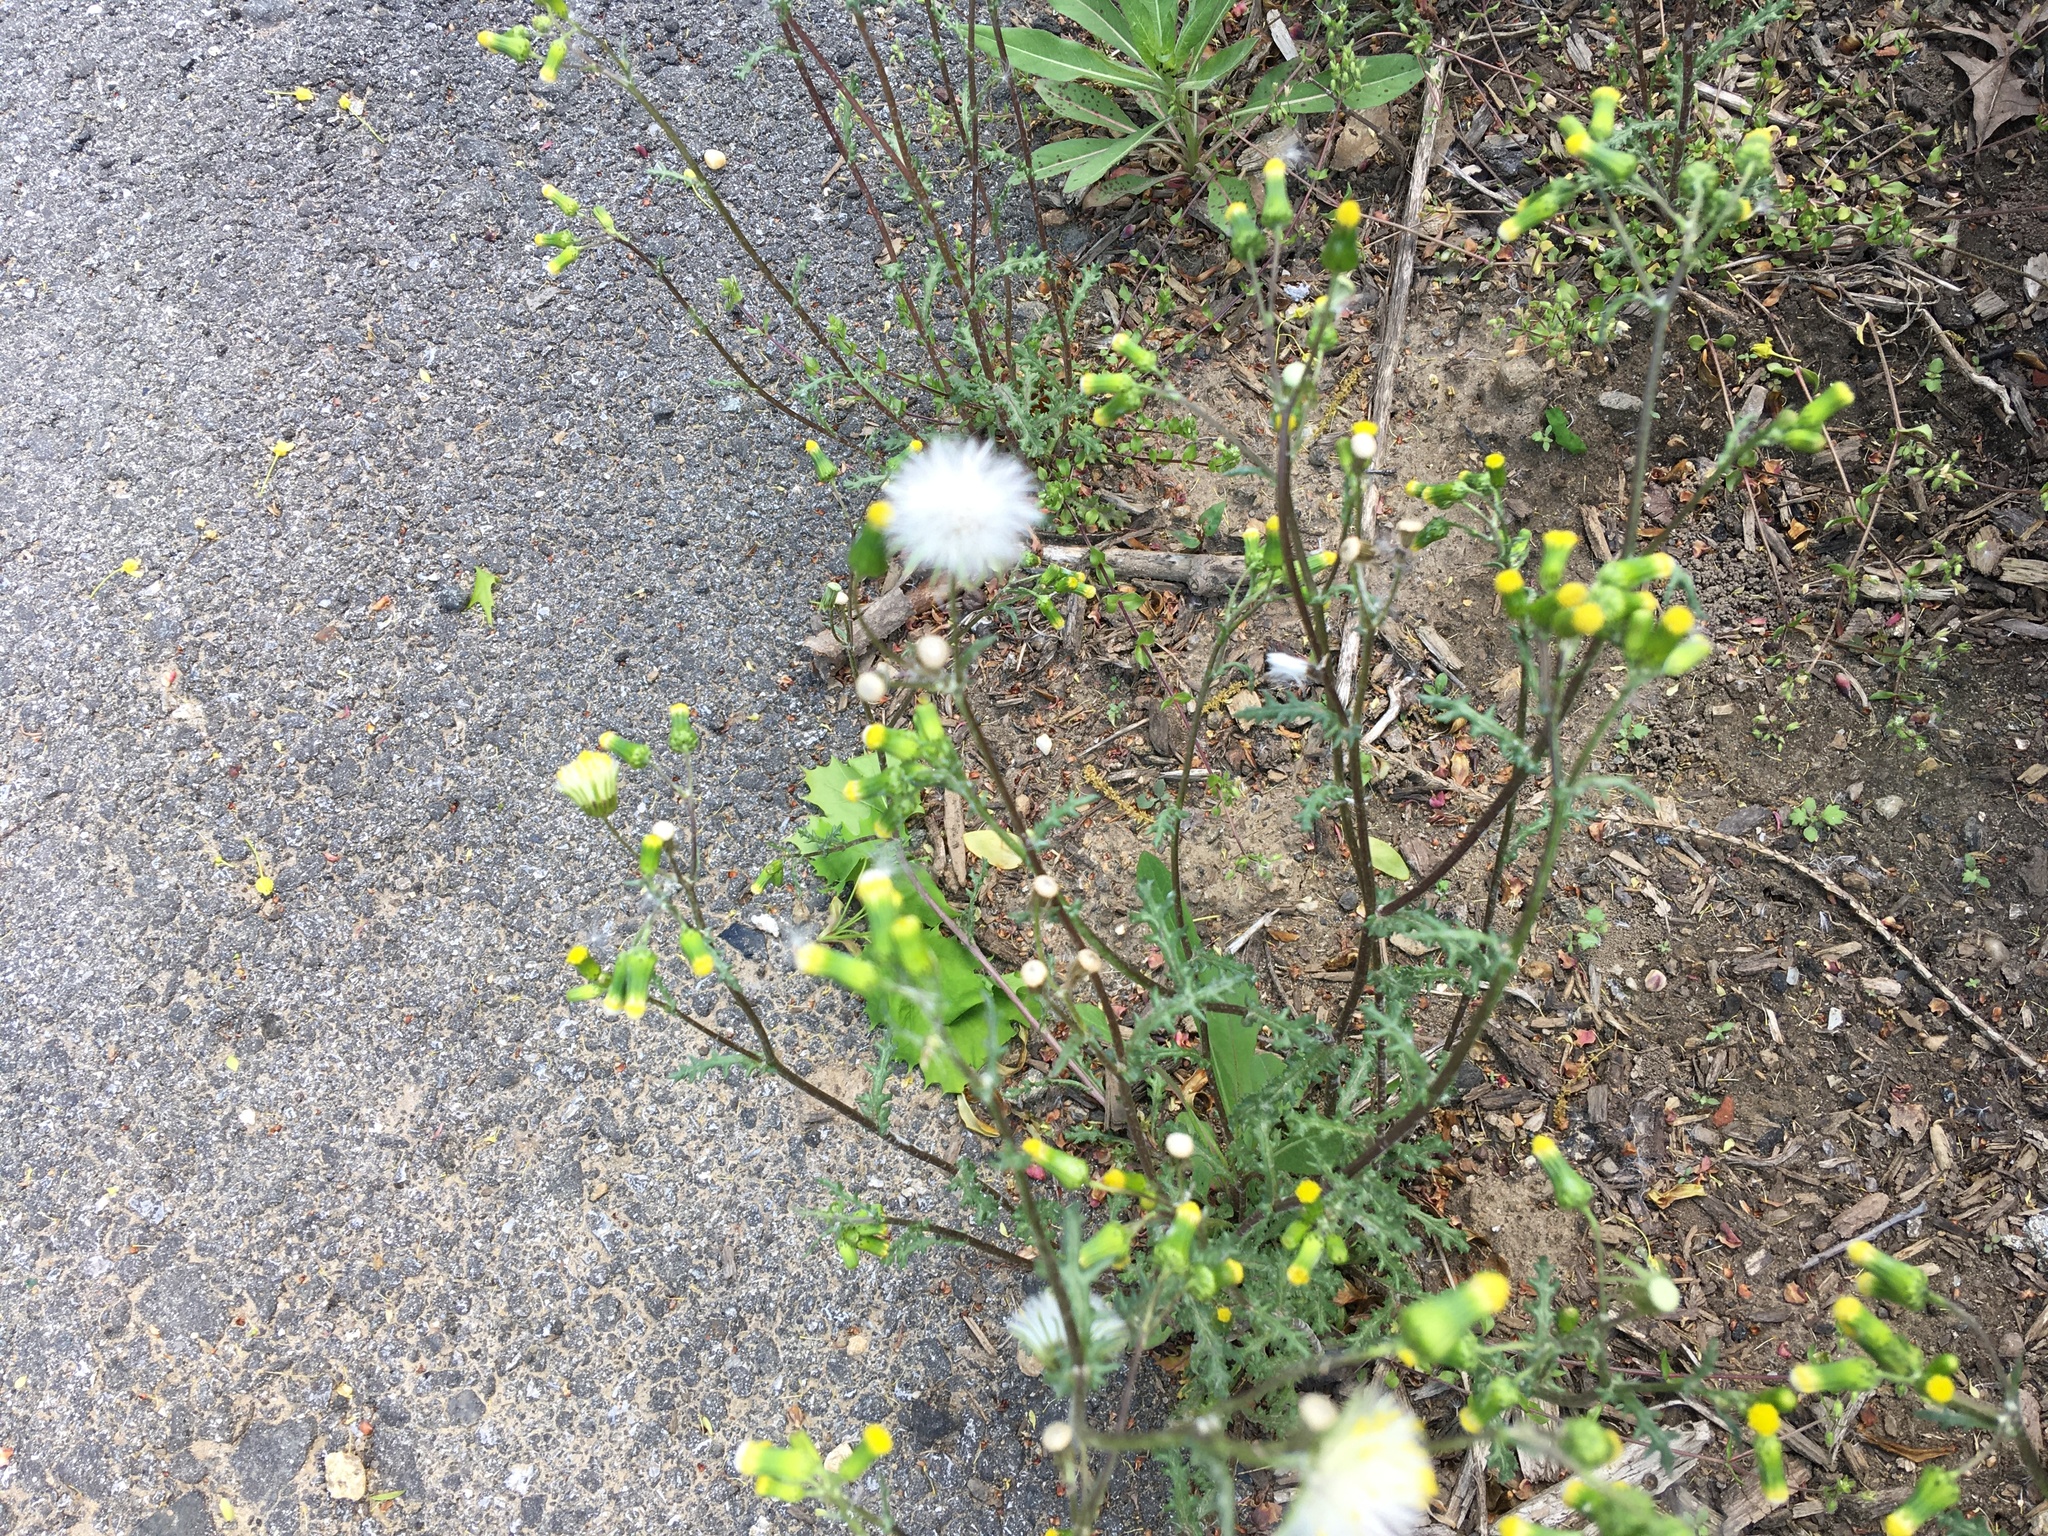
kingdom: Plantae
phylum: Tracheophyta
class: Magnoliopsida
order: Asterales
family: Asteraceae
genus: Senecio
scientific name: Senecio vulgaris
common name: Old-man-in-the-spring
